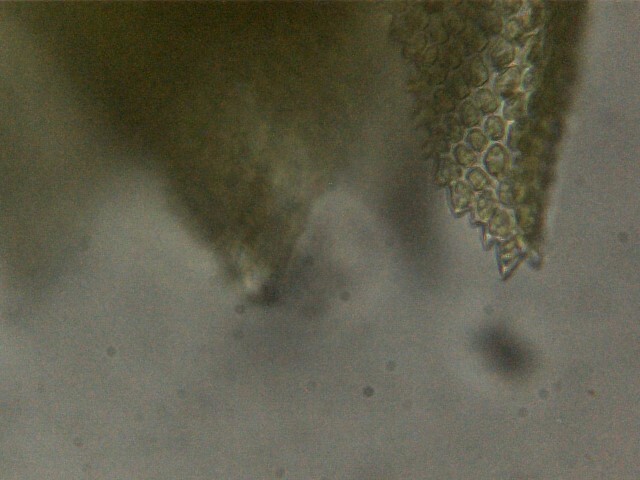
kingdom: Plantae
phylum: Bryophyta
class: Bryopsida
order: Hypnales
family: Thuidiaceae
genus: Thuidium
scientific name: Thuidium tamariscinum
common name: Common tamarisk-moss
